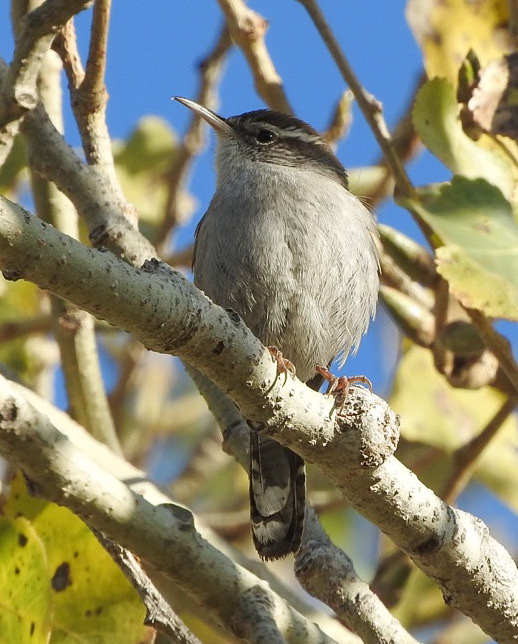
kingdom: Animalia
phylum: Chordata
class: Aves
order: Passeriformes
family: Troglodytidae
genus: Thryomanes
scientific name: Thryomanes bewickii
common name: Bewick's wren
